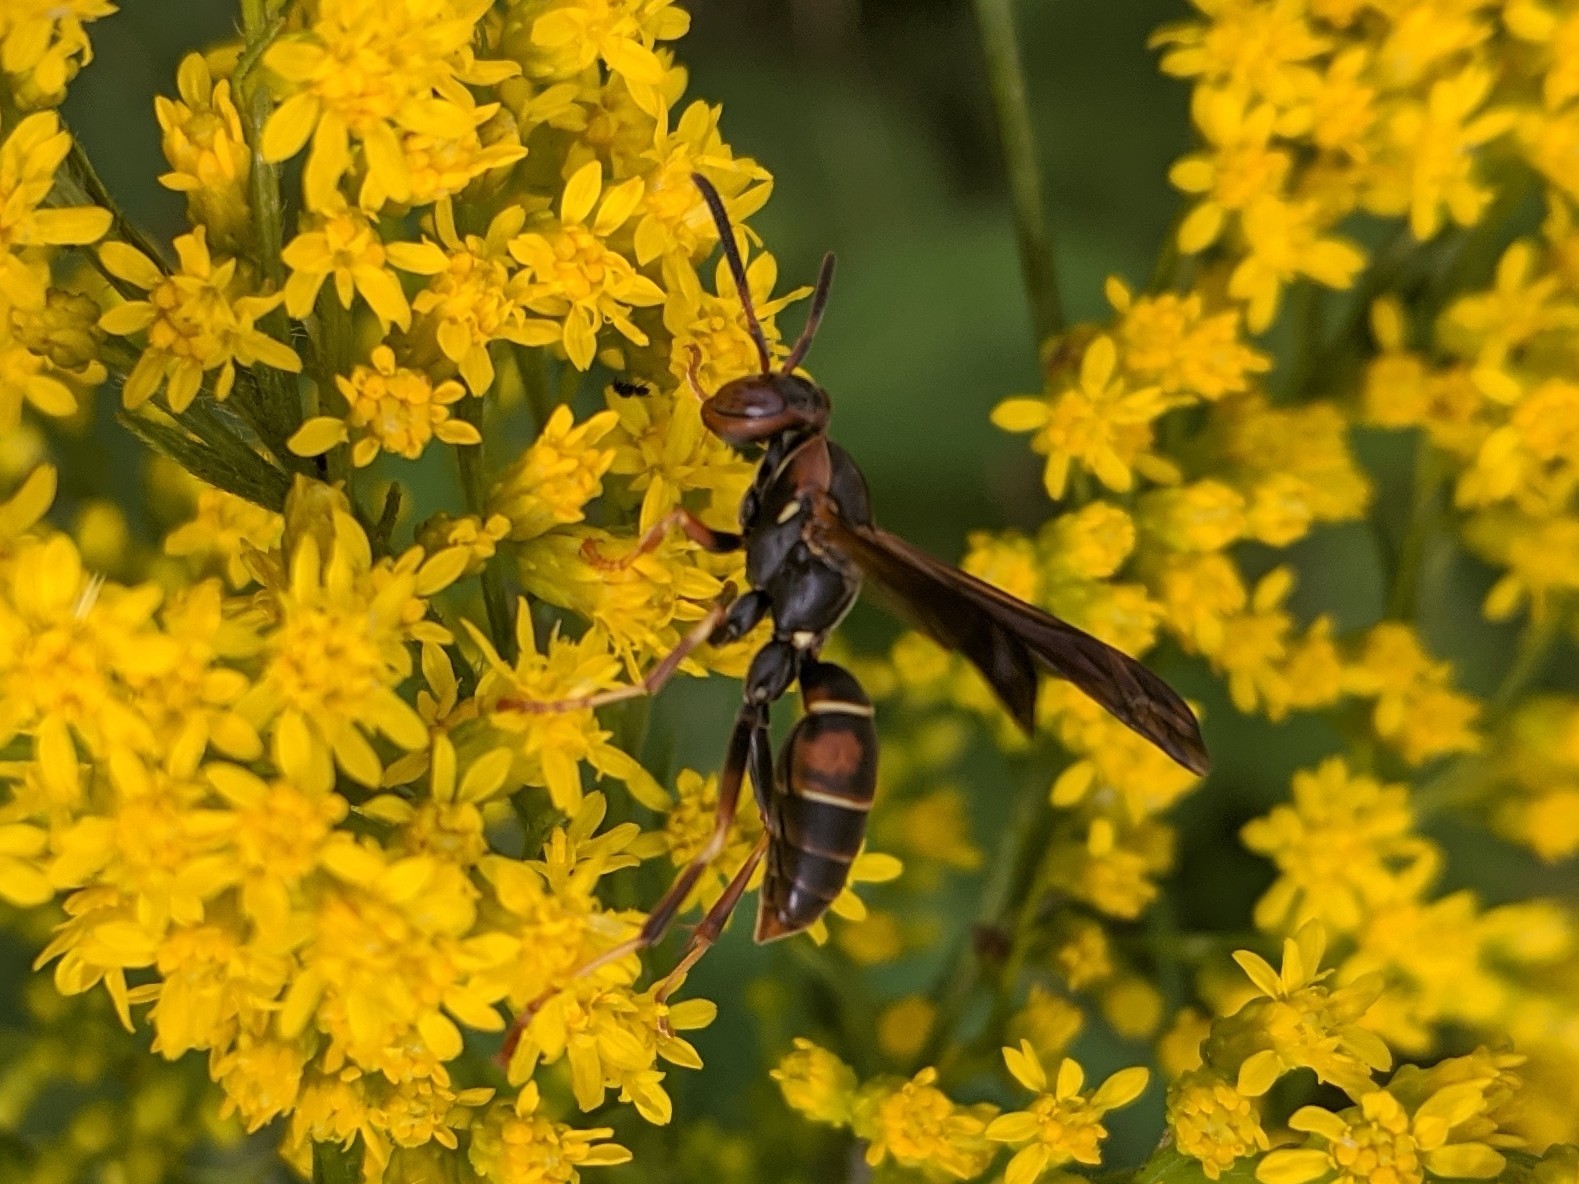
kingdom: Animalia
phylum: Arthropoda
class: Insecta
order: Hymenoptera
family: Eumenidae
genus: Polistes
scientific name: Polistes fuscatus
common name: Dark paper wasp
